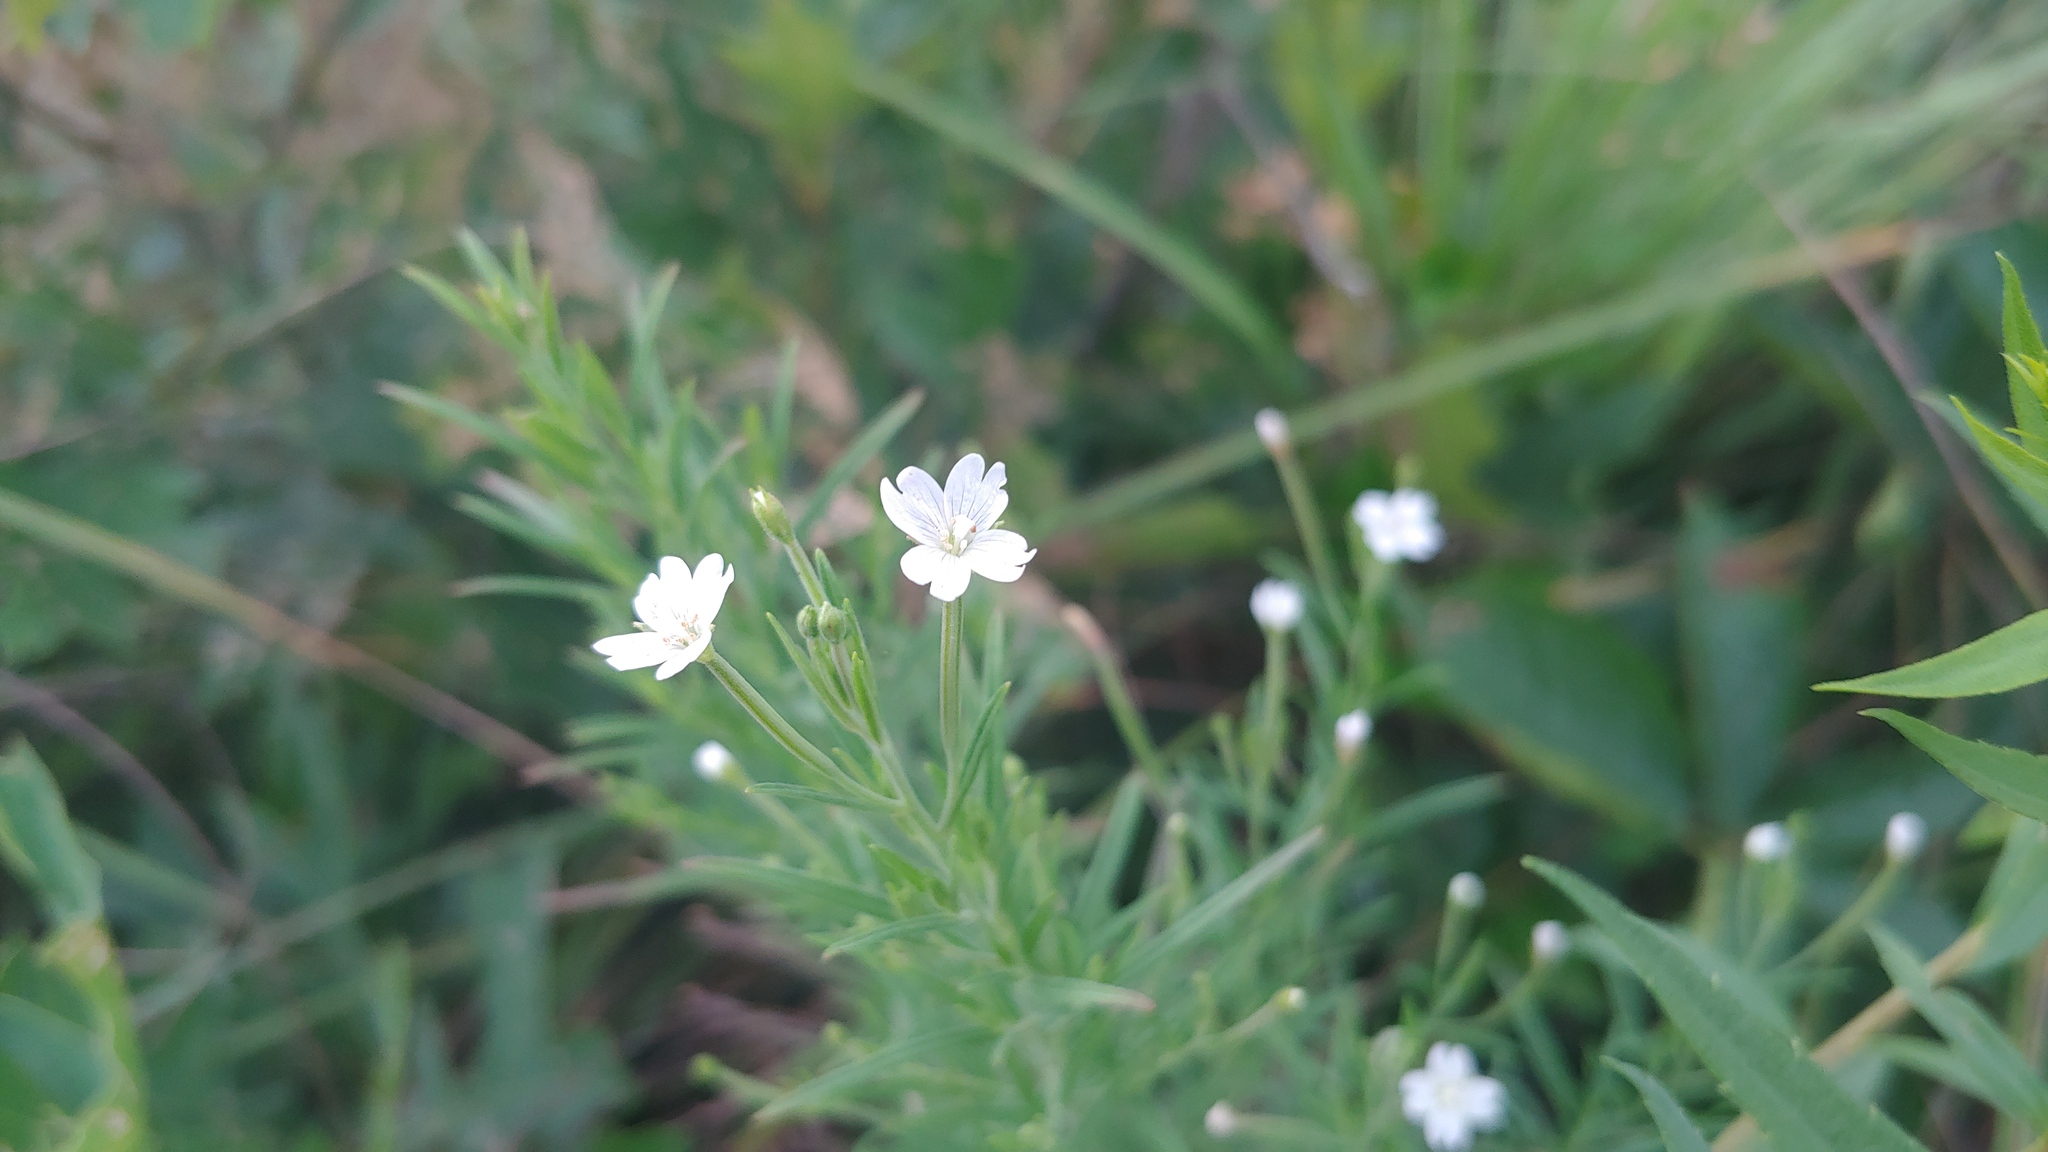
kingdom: Plantae
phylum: Tracheophyta
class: Magnoliopsida
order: Myrtales
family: Onagraceae
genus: Epilobium
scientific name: Epilobium leptophyllum
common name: Bog willowherb
